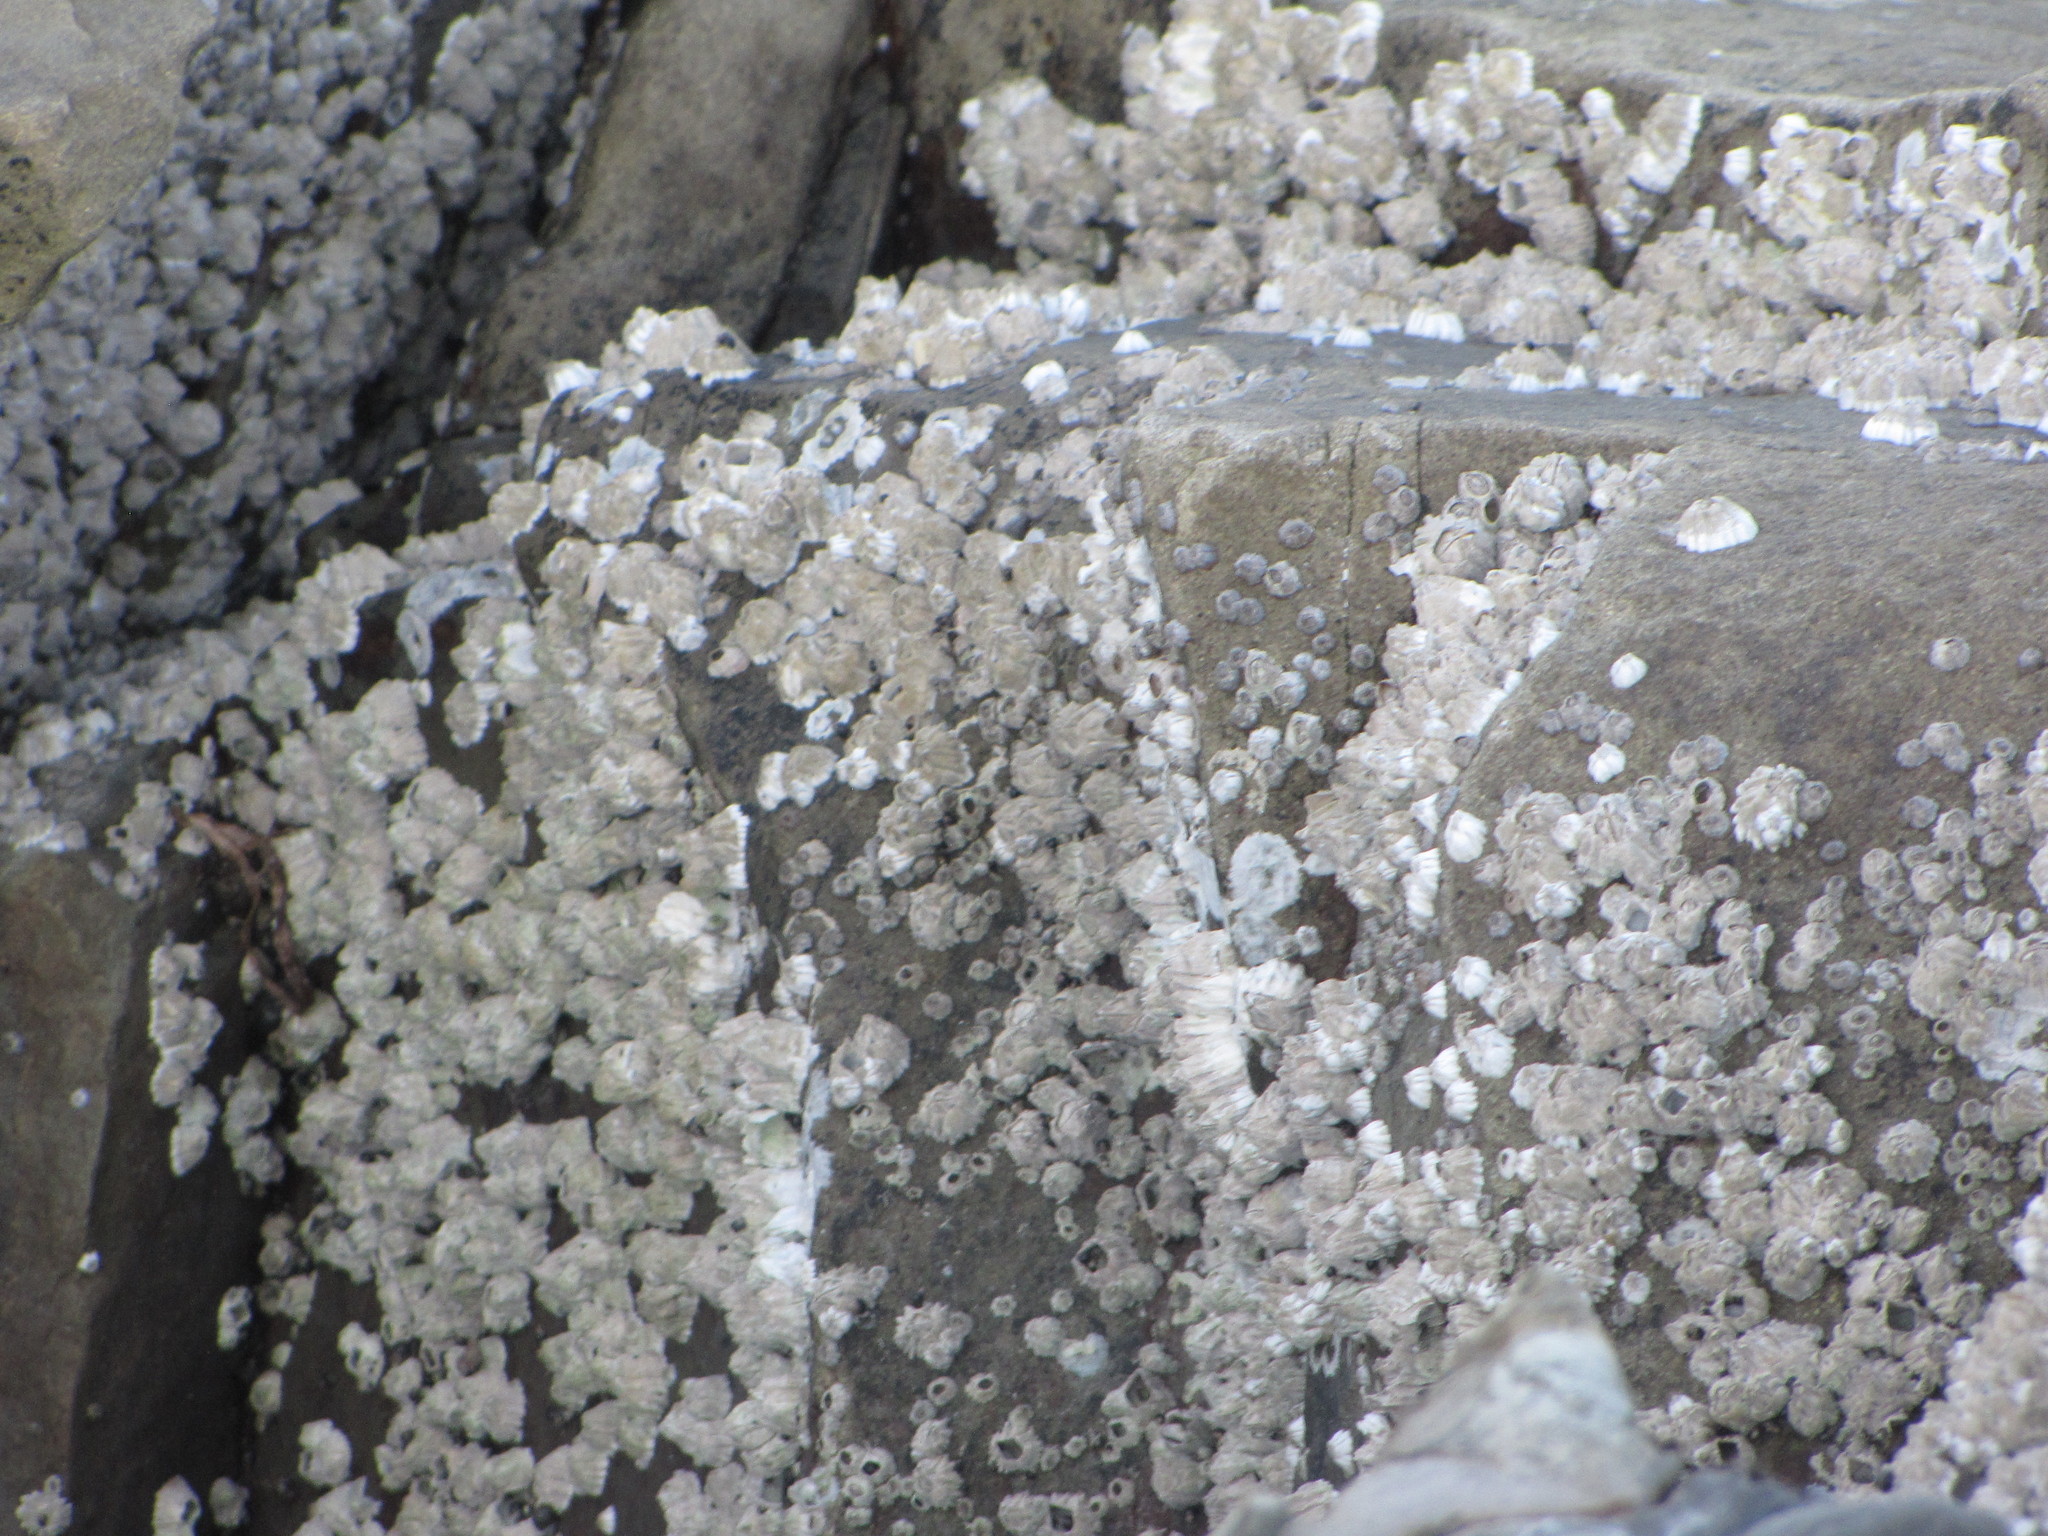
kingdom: Animalia
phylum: Arthropoda
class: Maxillopoda
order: Sessilia
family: Balanidae
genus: Balanus
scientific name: Balanus glandula
